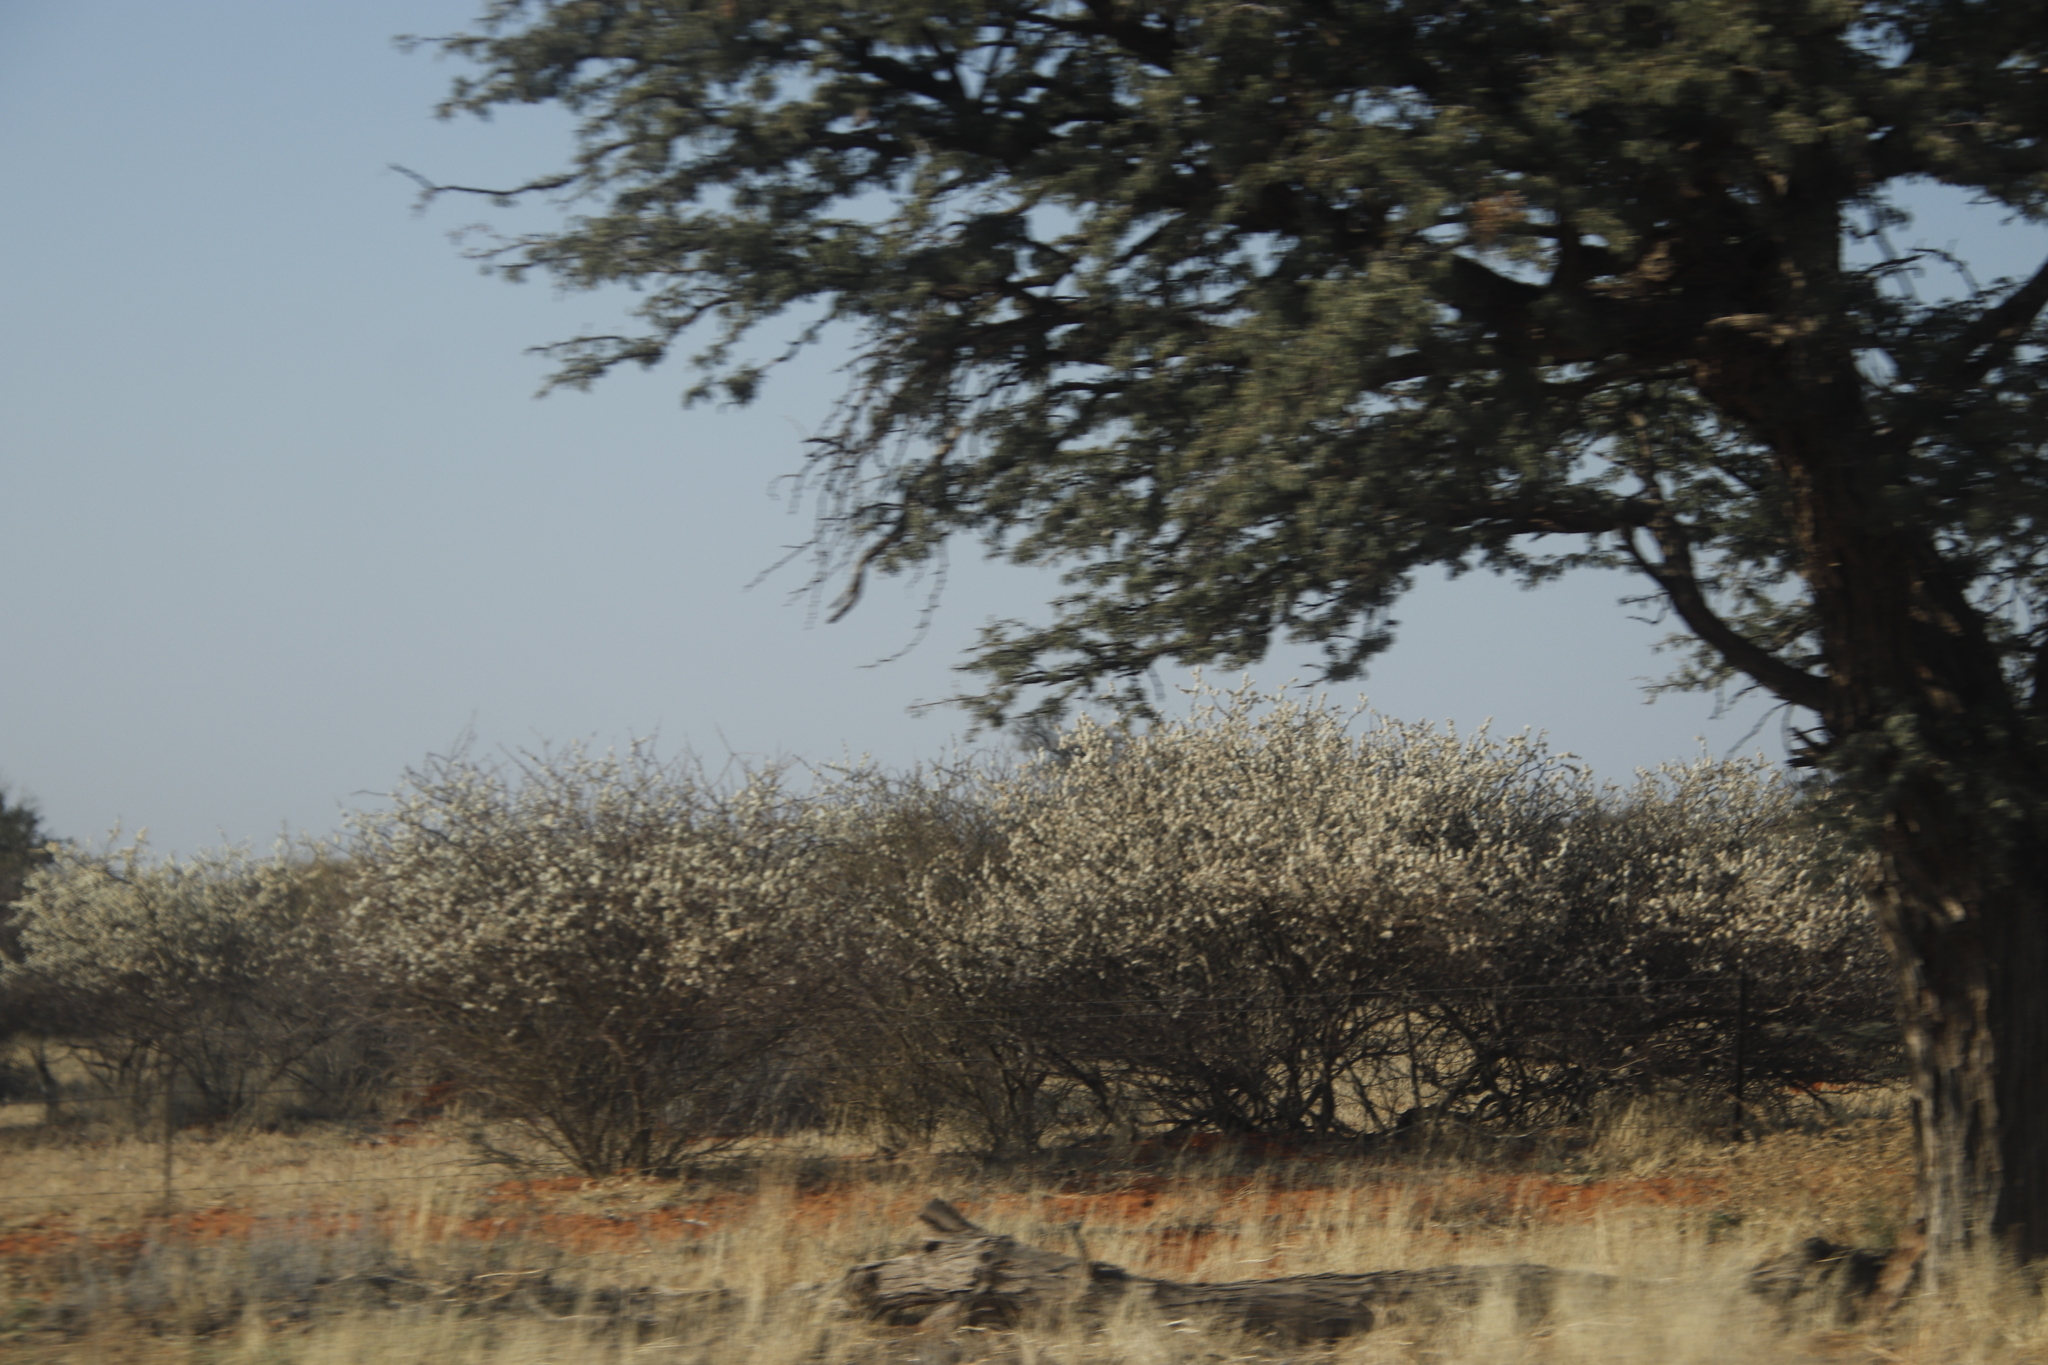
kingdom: Plantae
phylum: Tracheophyta
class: Magnoliopsida
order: Fabales
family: Fabaceae
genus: Senegalia
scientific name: Senegalia mellifera
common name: Hookthorn
